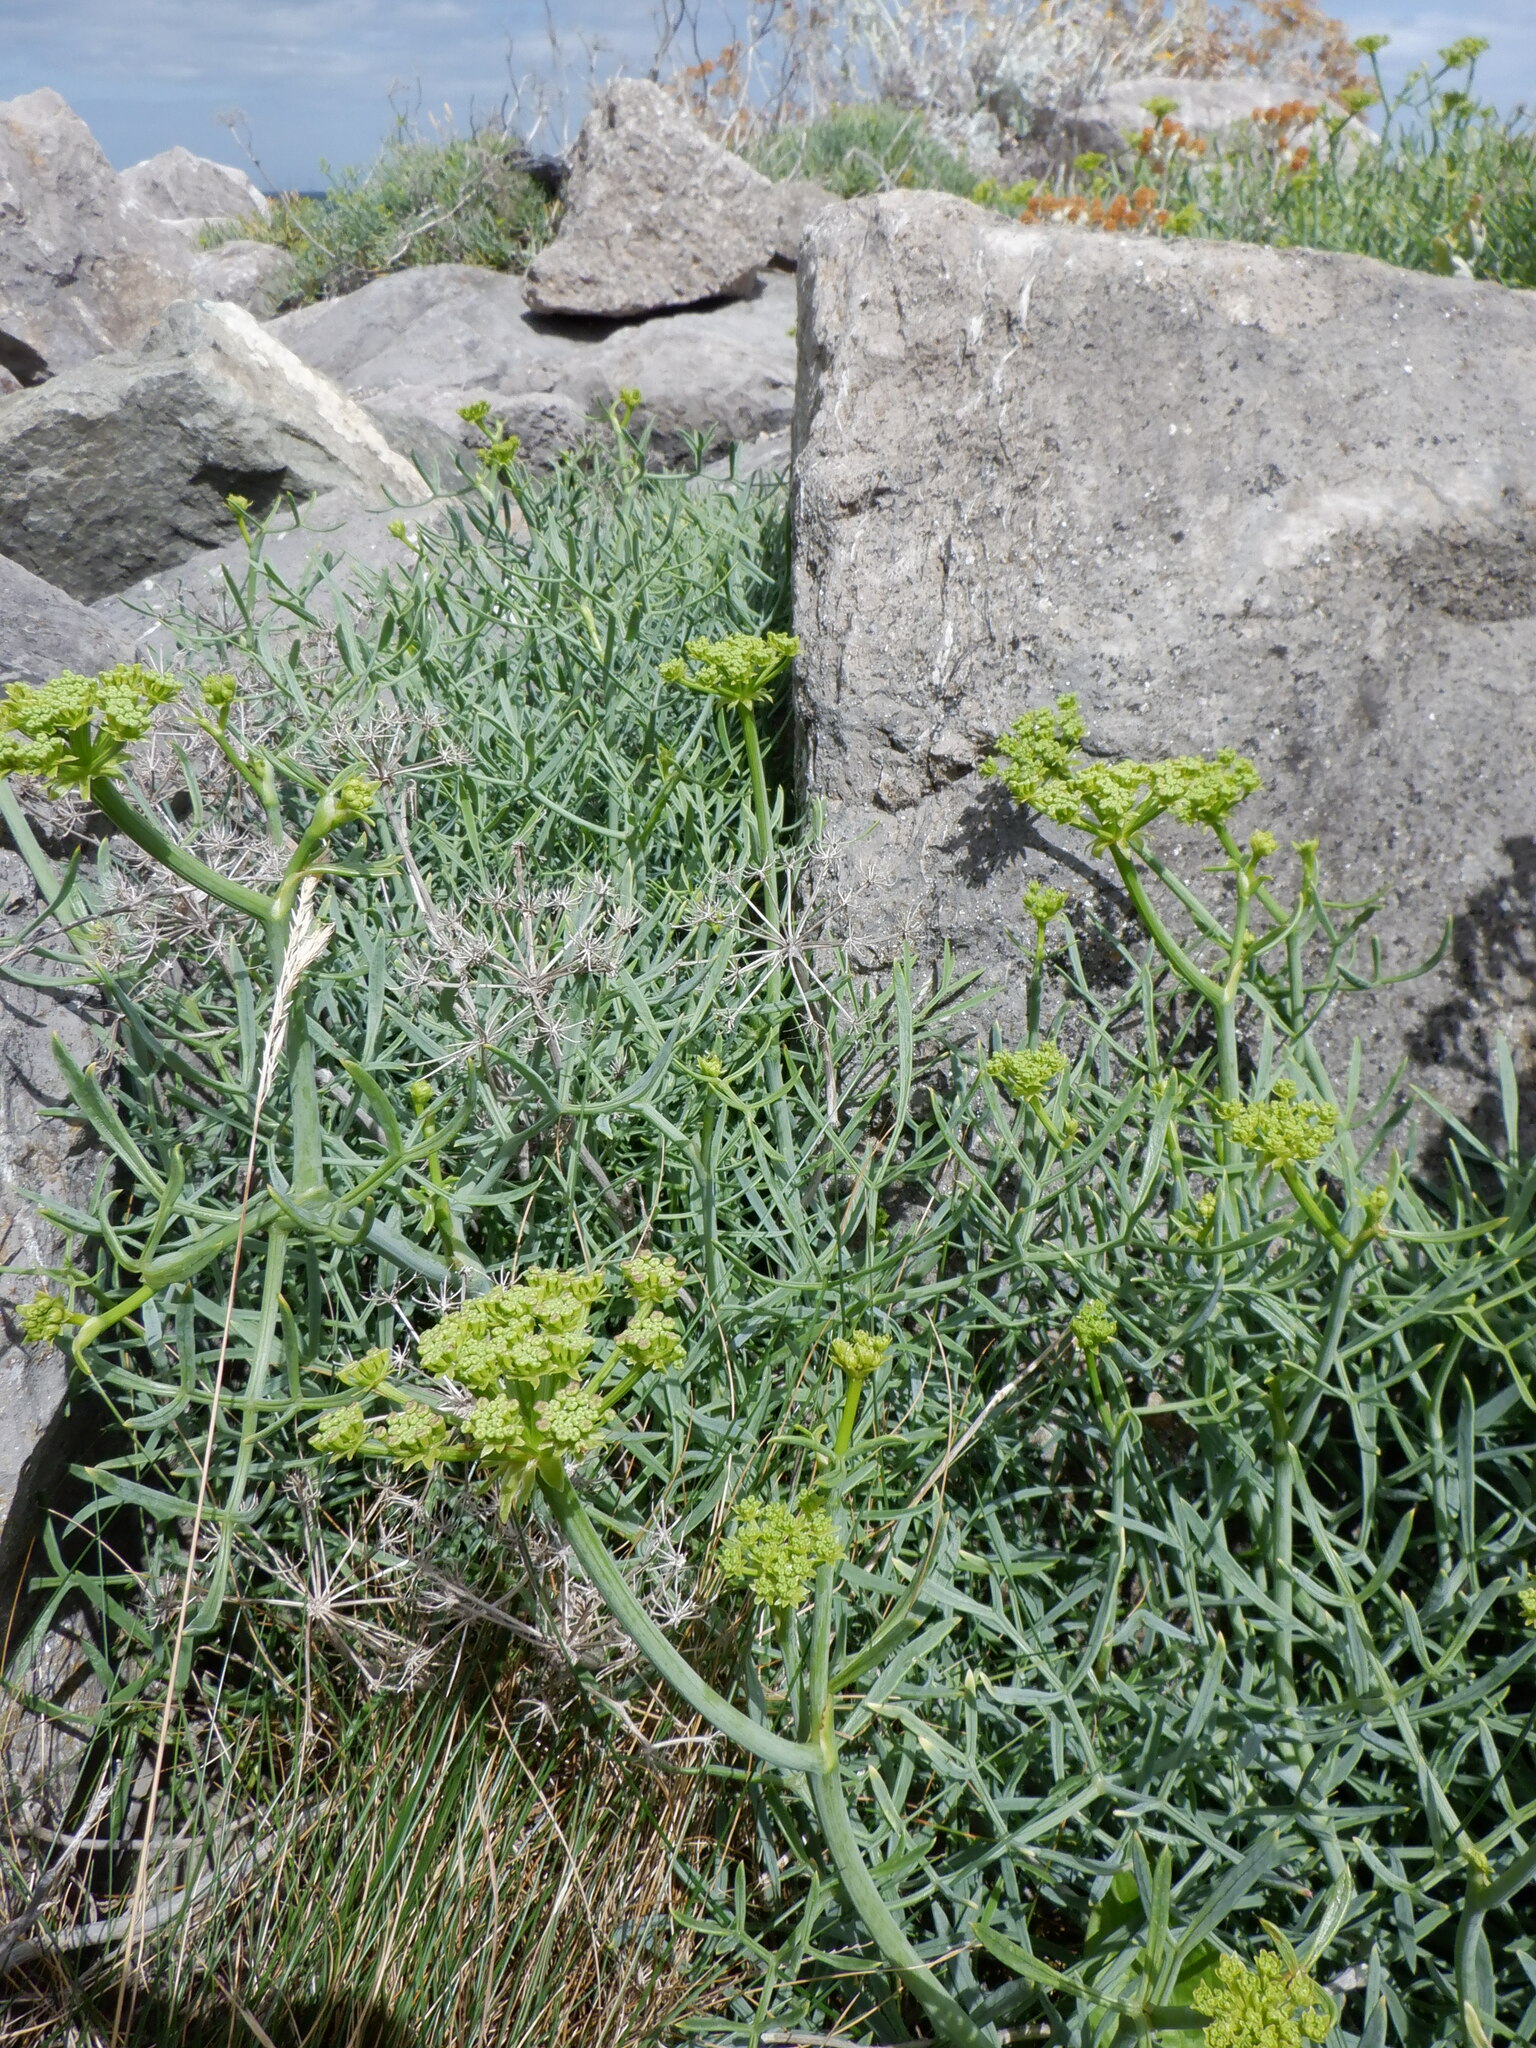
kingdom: Plantae
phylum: Tracheophyta
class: Magnoliopsida
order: Apiales
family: Apiaceae
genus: Crithmum
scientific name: Crithmum maritimum
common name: Rock samphire
